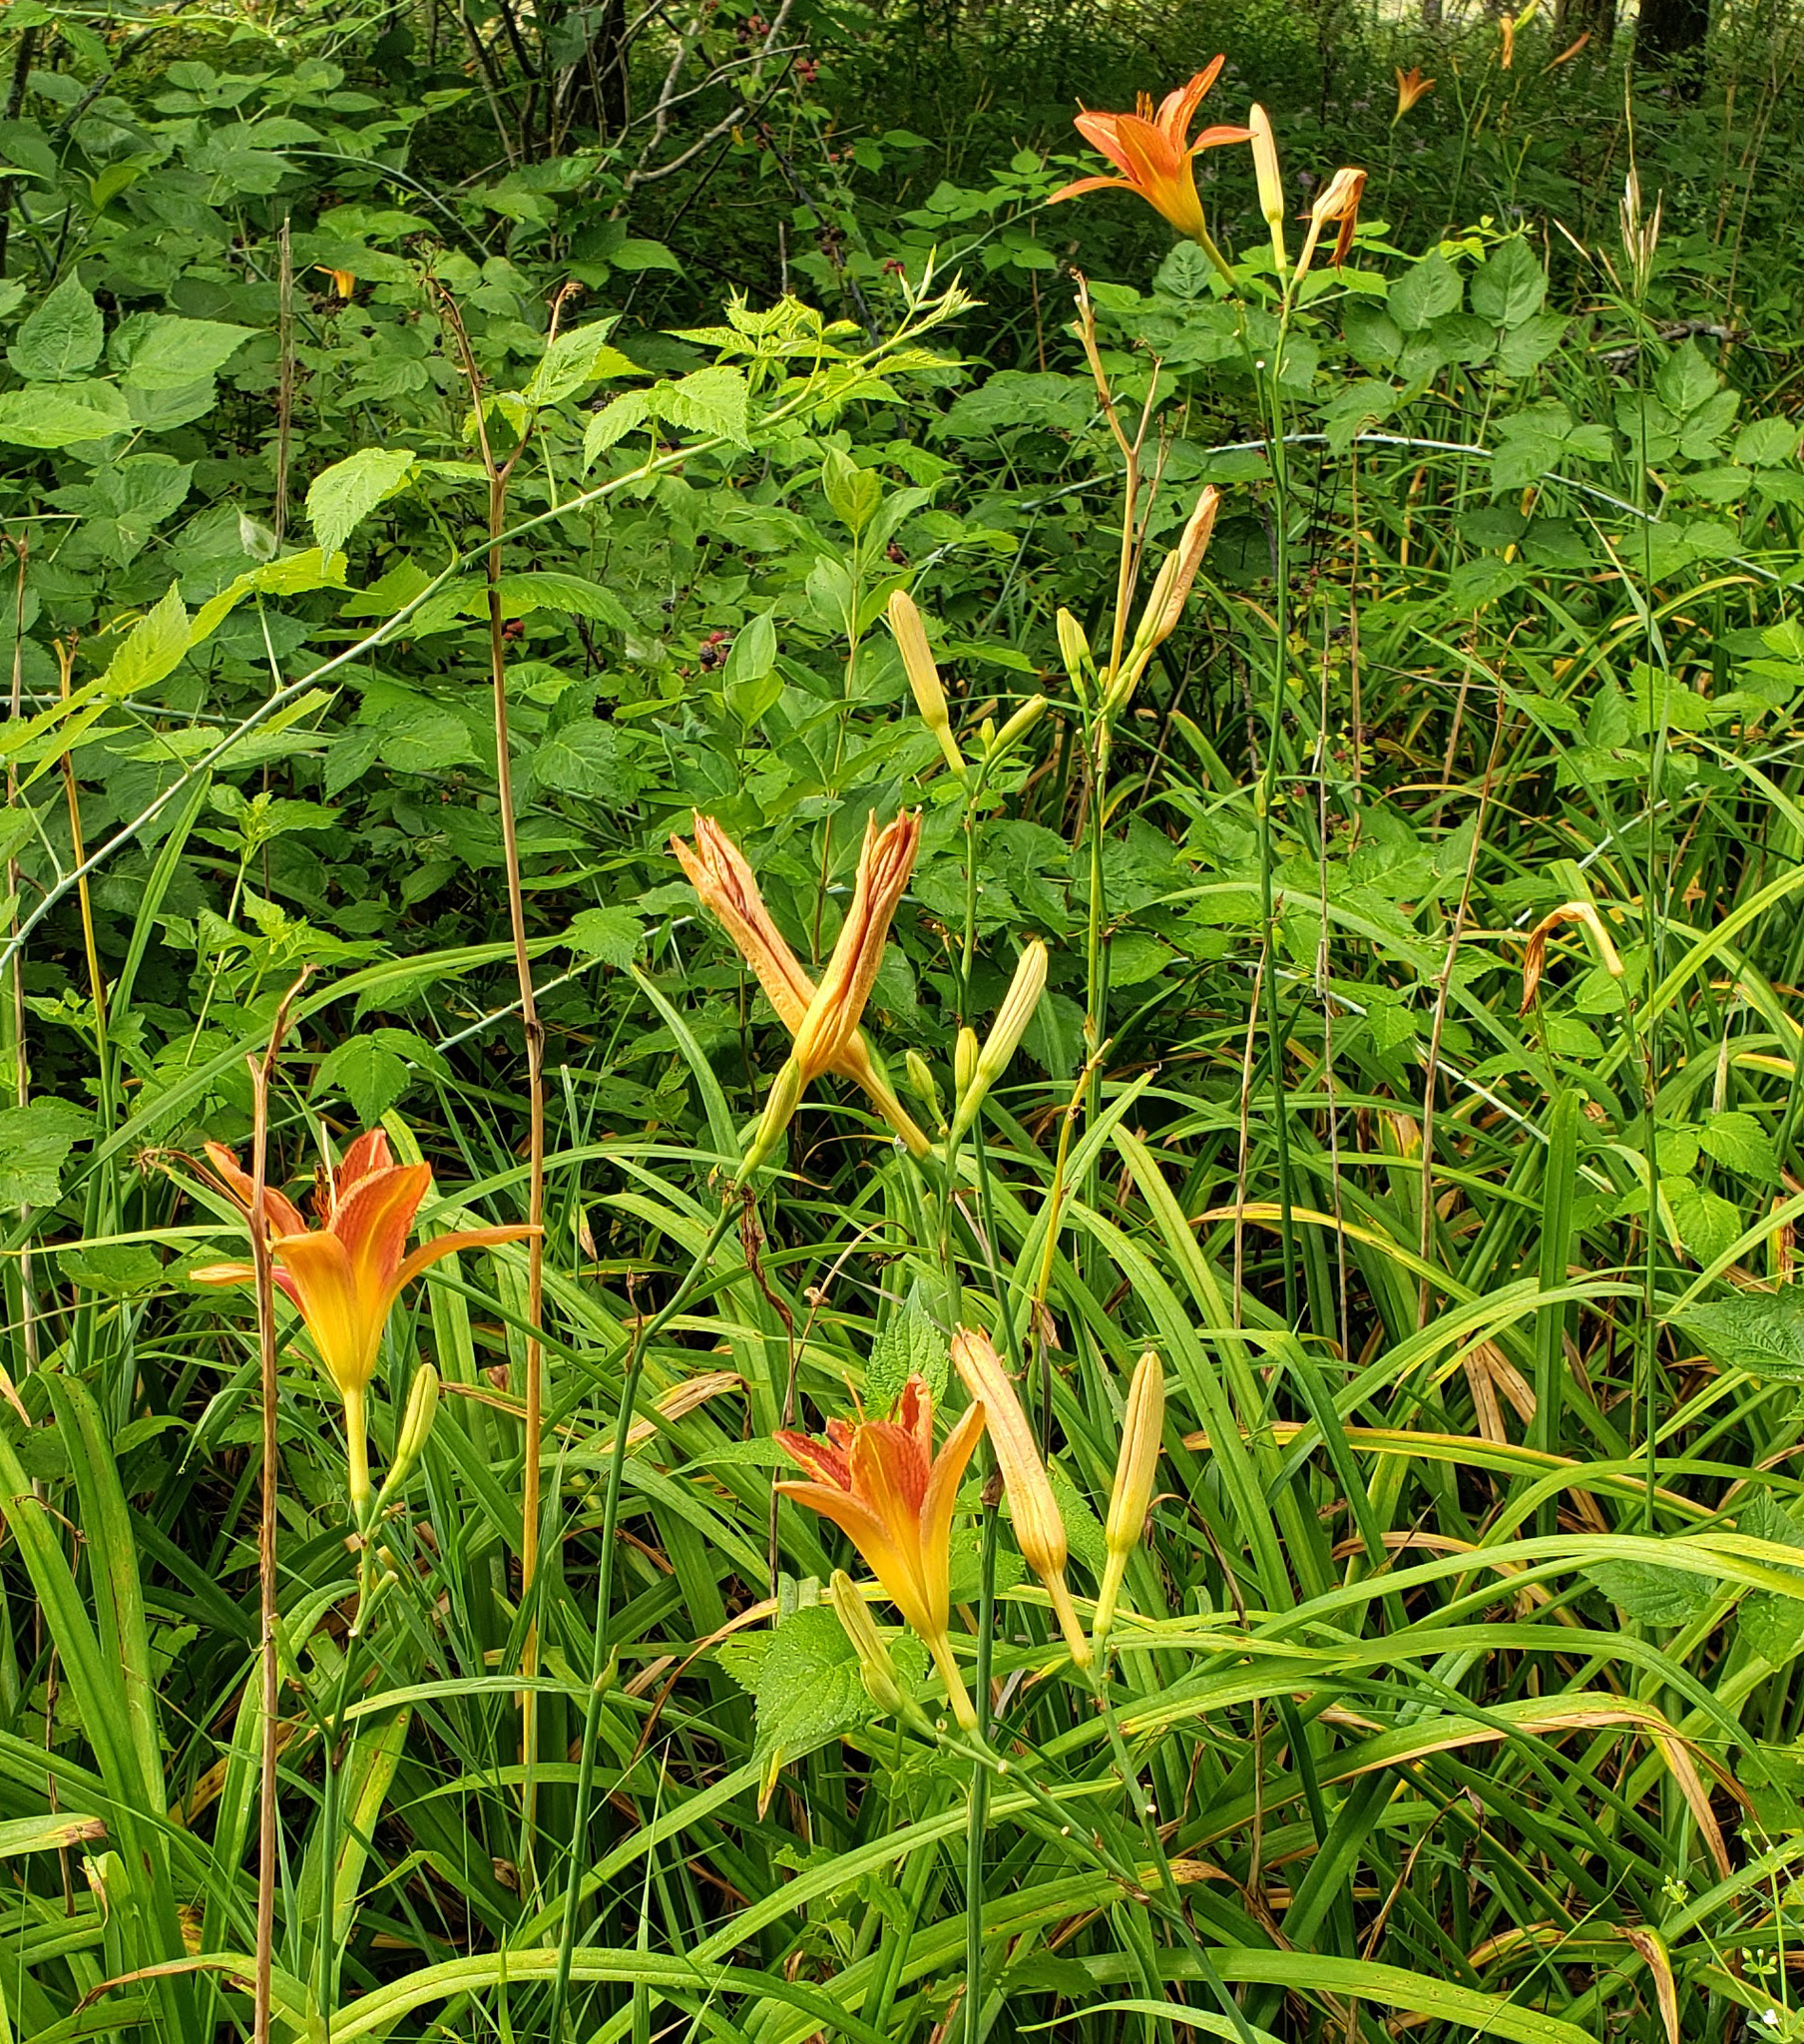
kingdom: Plantae
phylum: Tracheophyta
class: Liliopsida
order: Asparagales
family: Asphodelaceae
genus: Hemerocallis
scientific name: Hemerocallis fulva
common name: Orange day-lily
